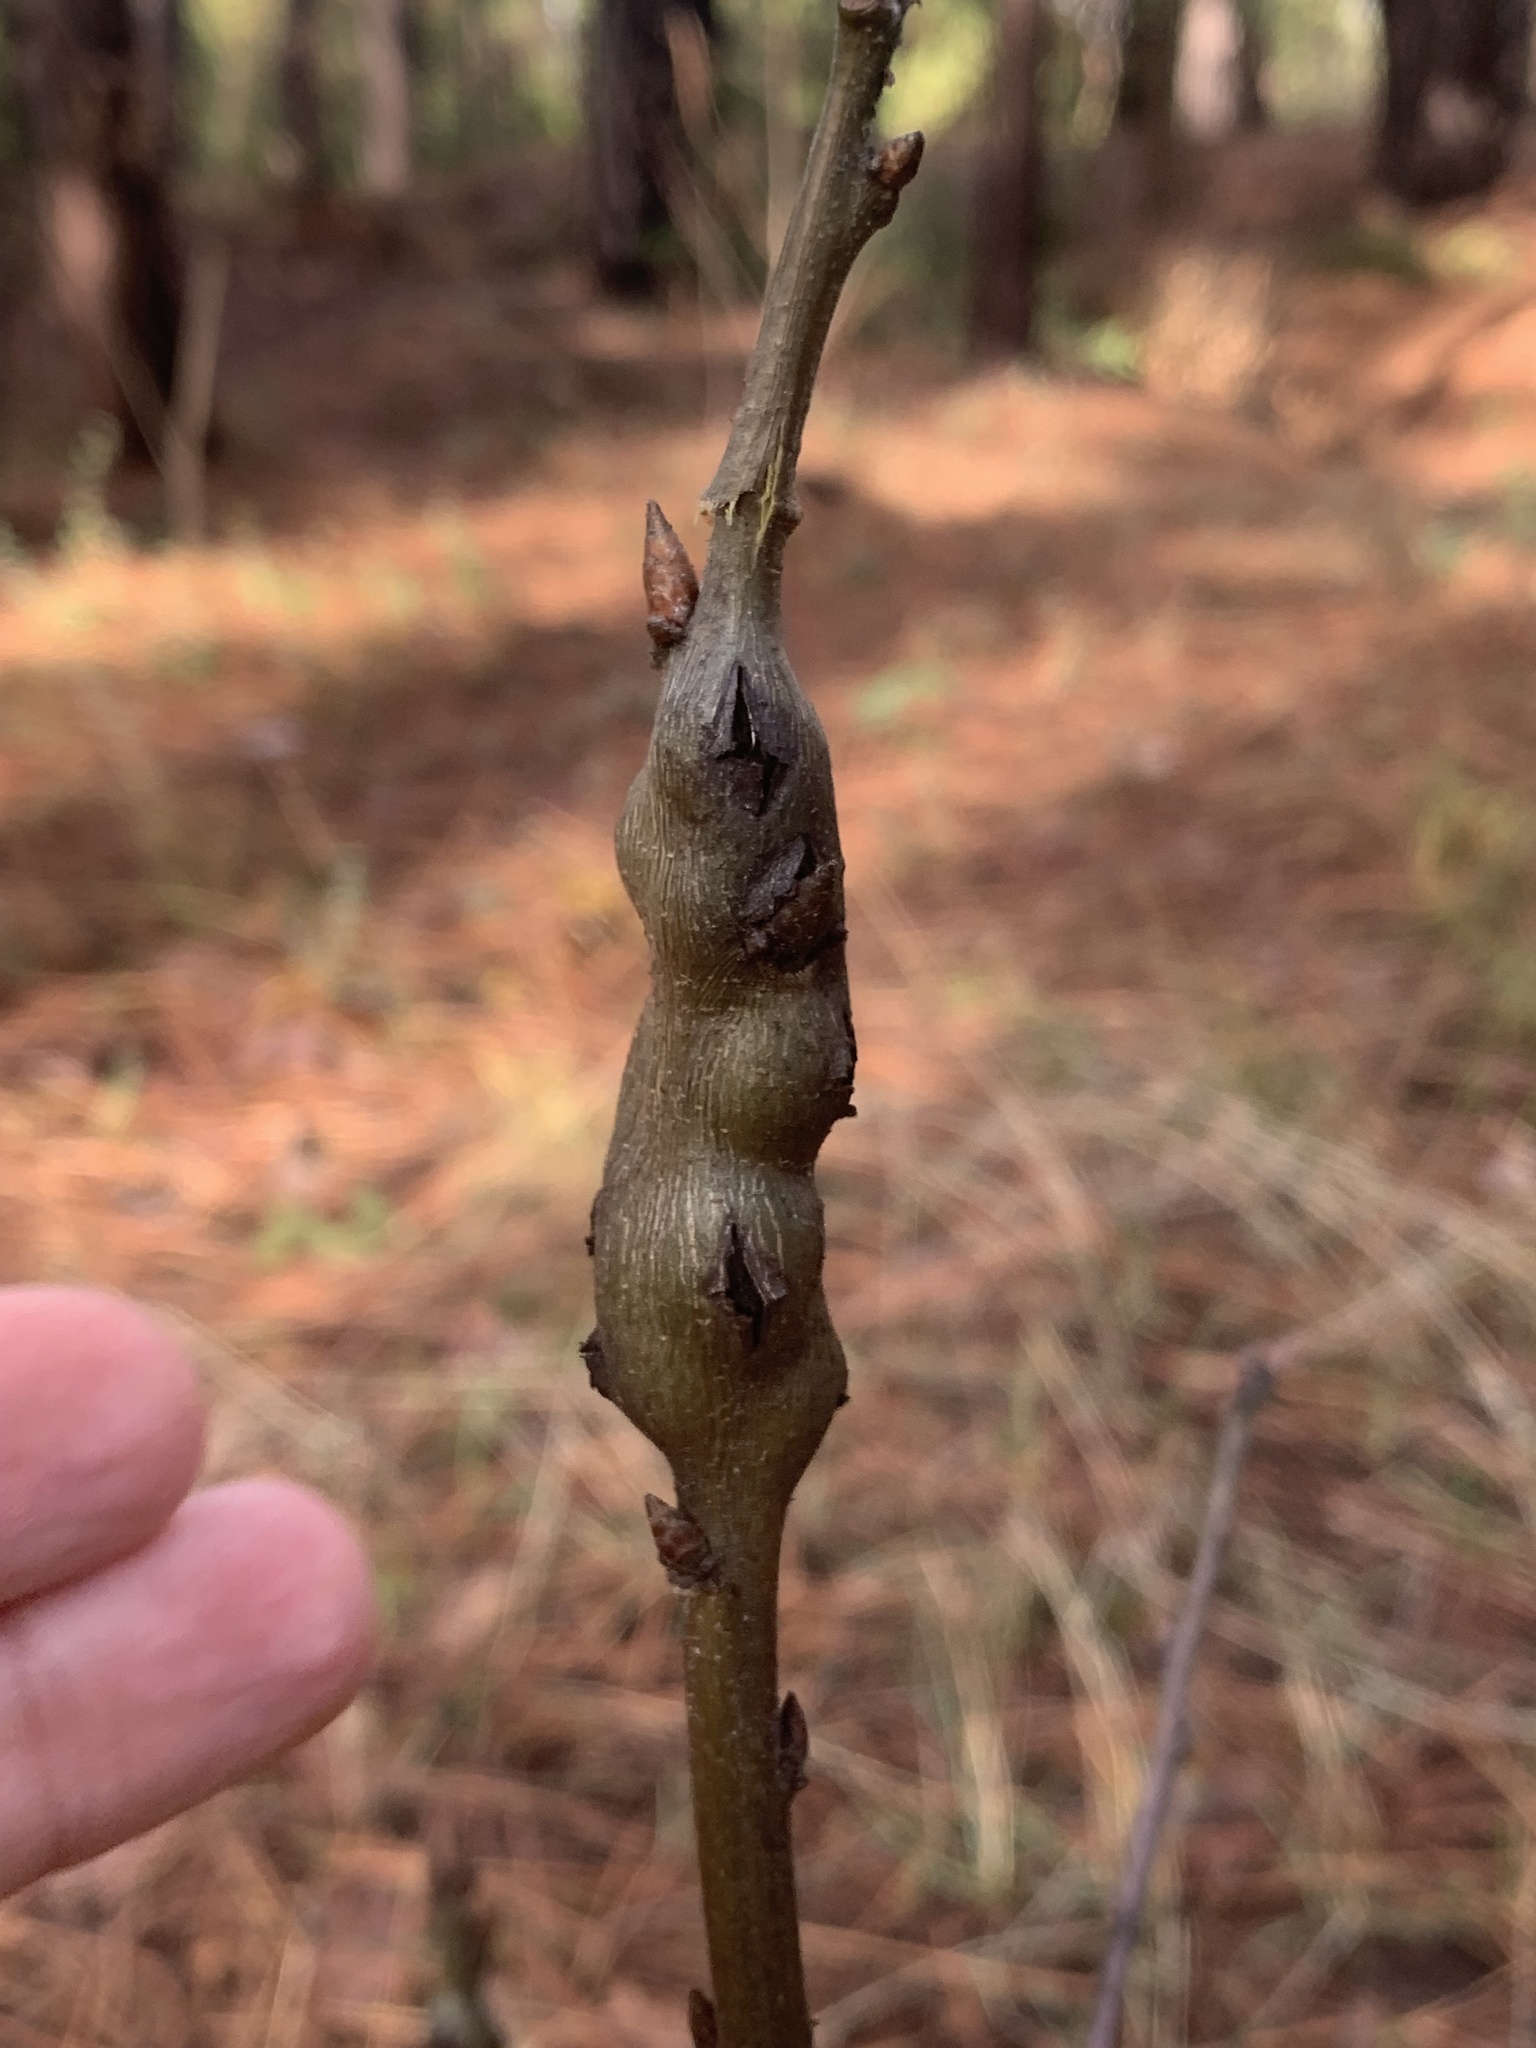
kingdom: Animalia
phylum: Arthropoda
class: Insecta
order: Hymenoptera
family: Cynipidae
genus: Callirhytis
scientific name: Callirhytis
